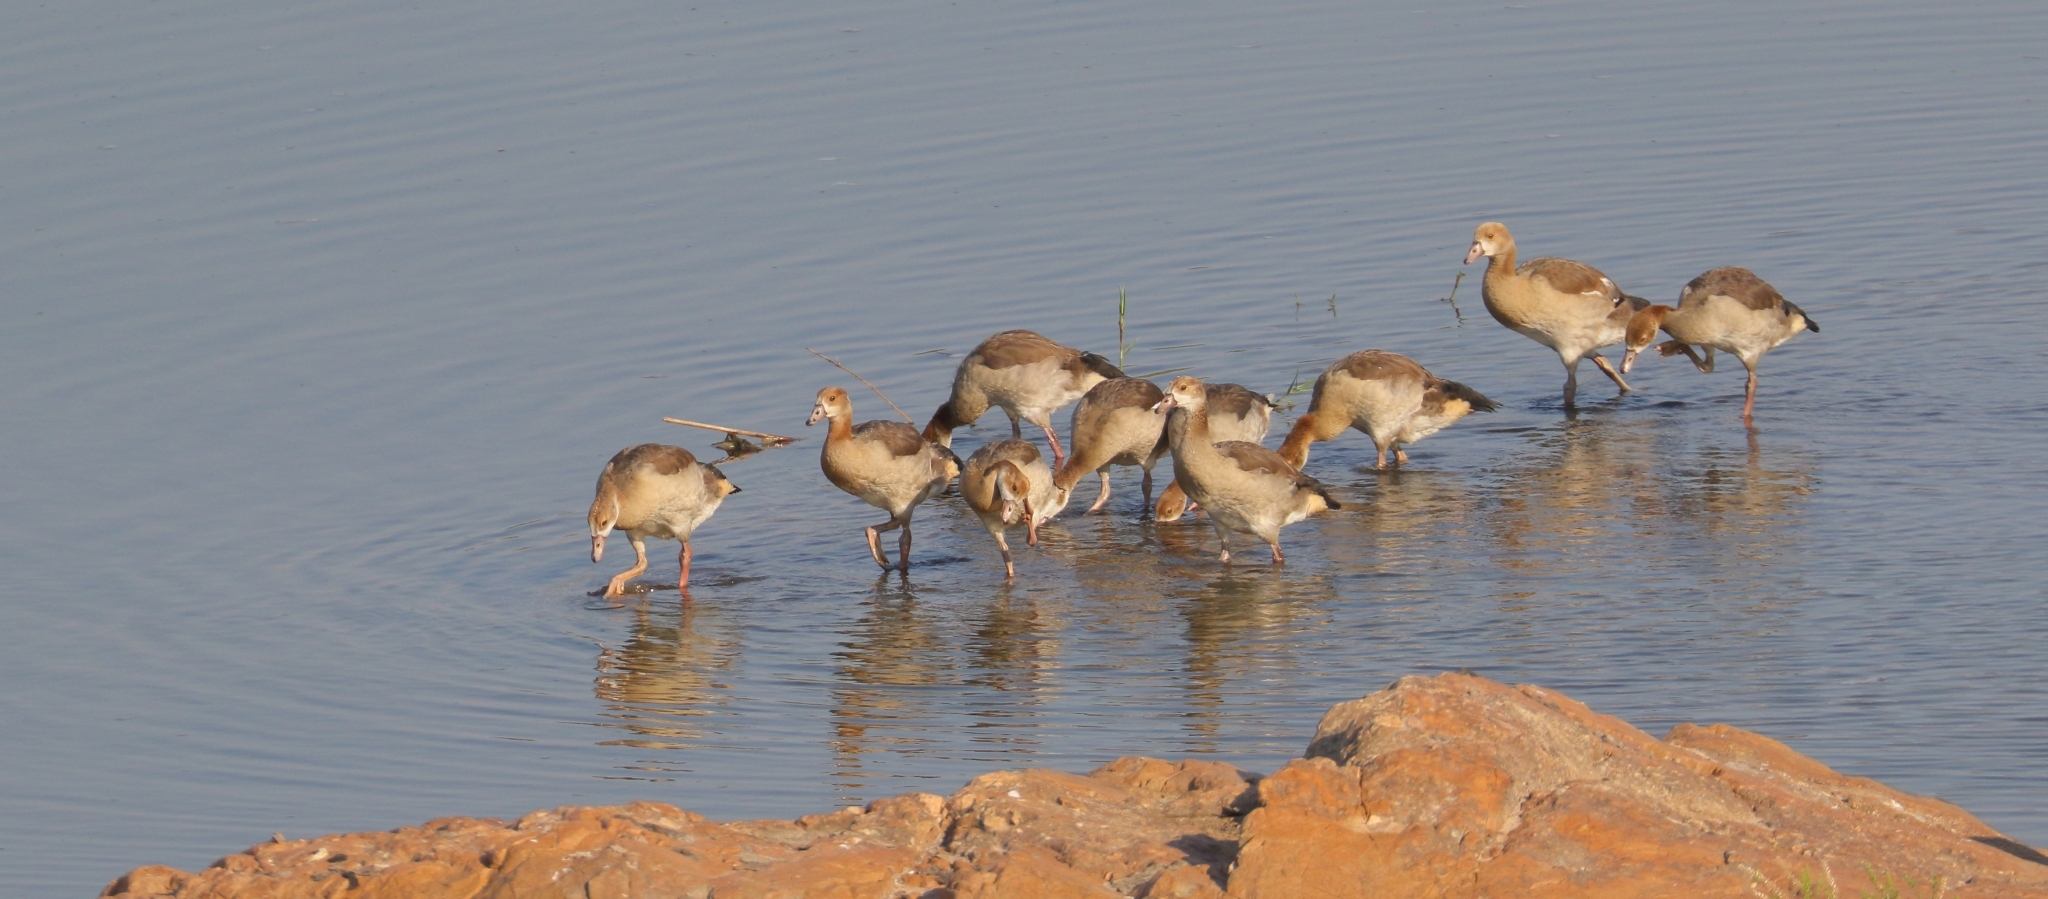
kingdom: Animalia
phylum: Chordata
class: Aves
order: Anseriformes
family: Anatidae
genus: Alopochen
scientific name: Alopochen aegyptiaca
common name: Egyptian goose
